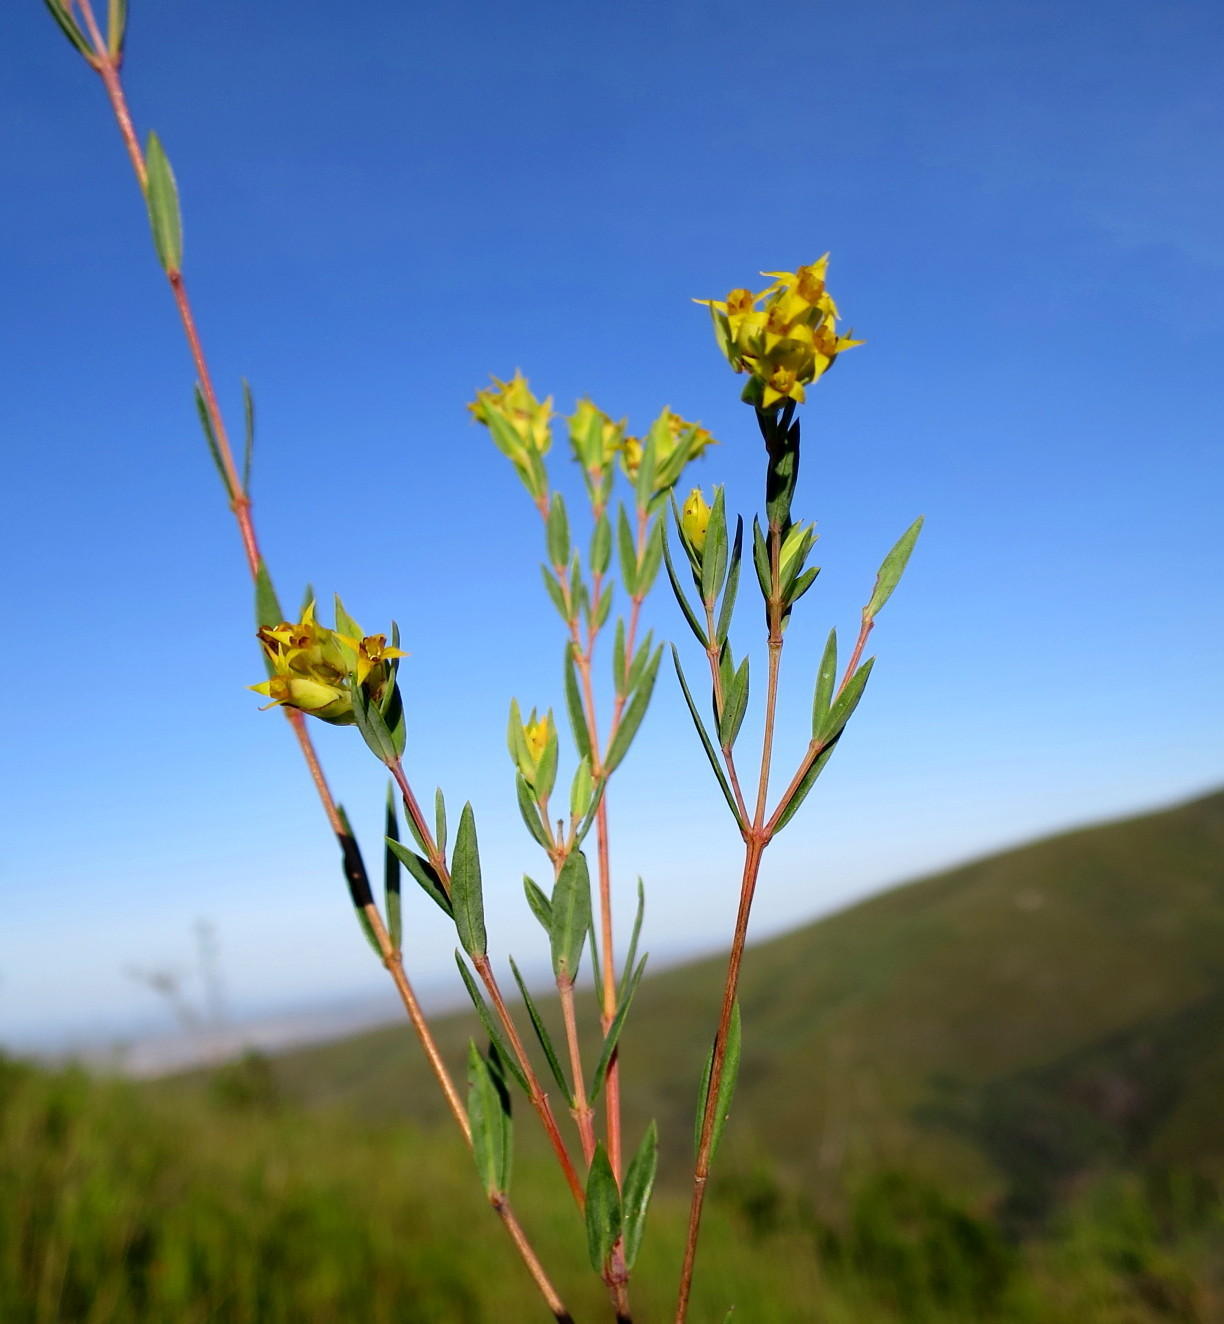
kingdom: Plantae
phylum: Tracheophyta
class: Magnoliopsida
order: Myrtales
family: Penaeaceae
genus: Penaea
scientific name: Penaea acutifolia
